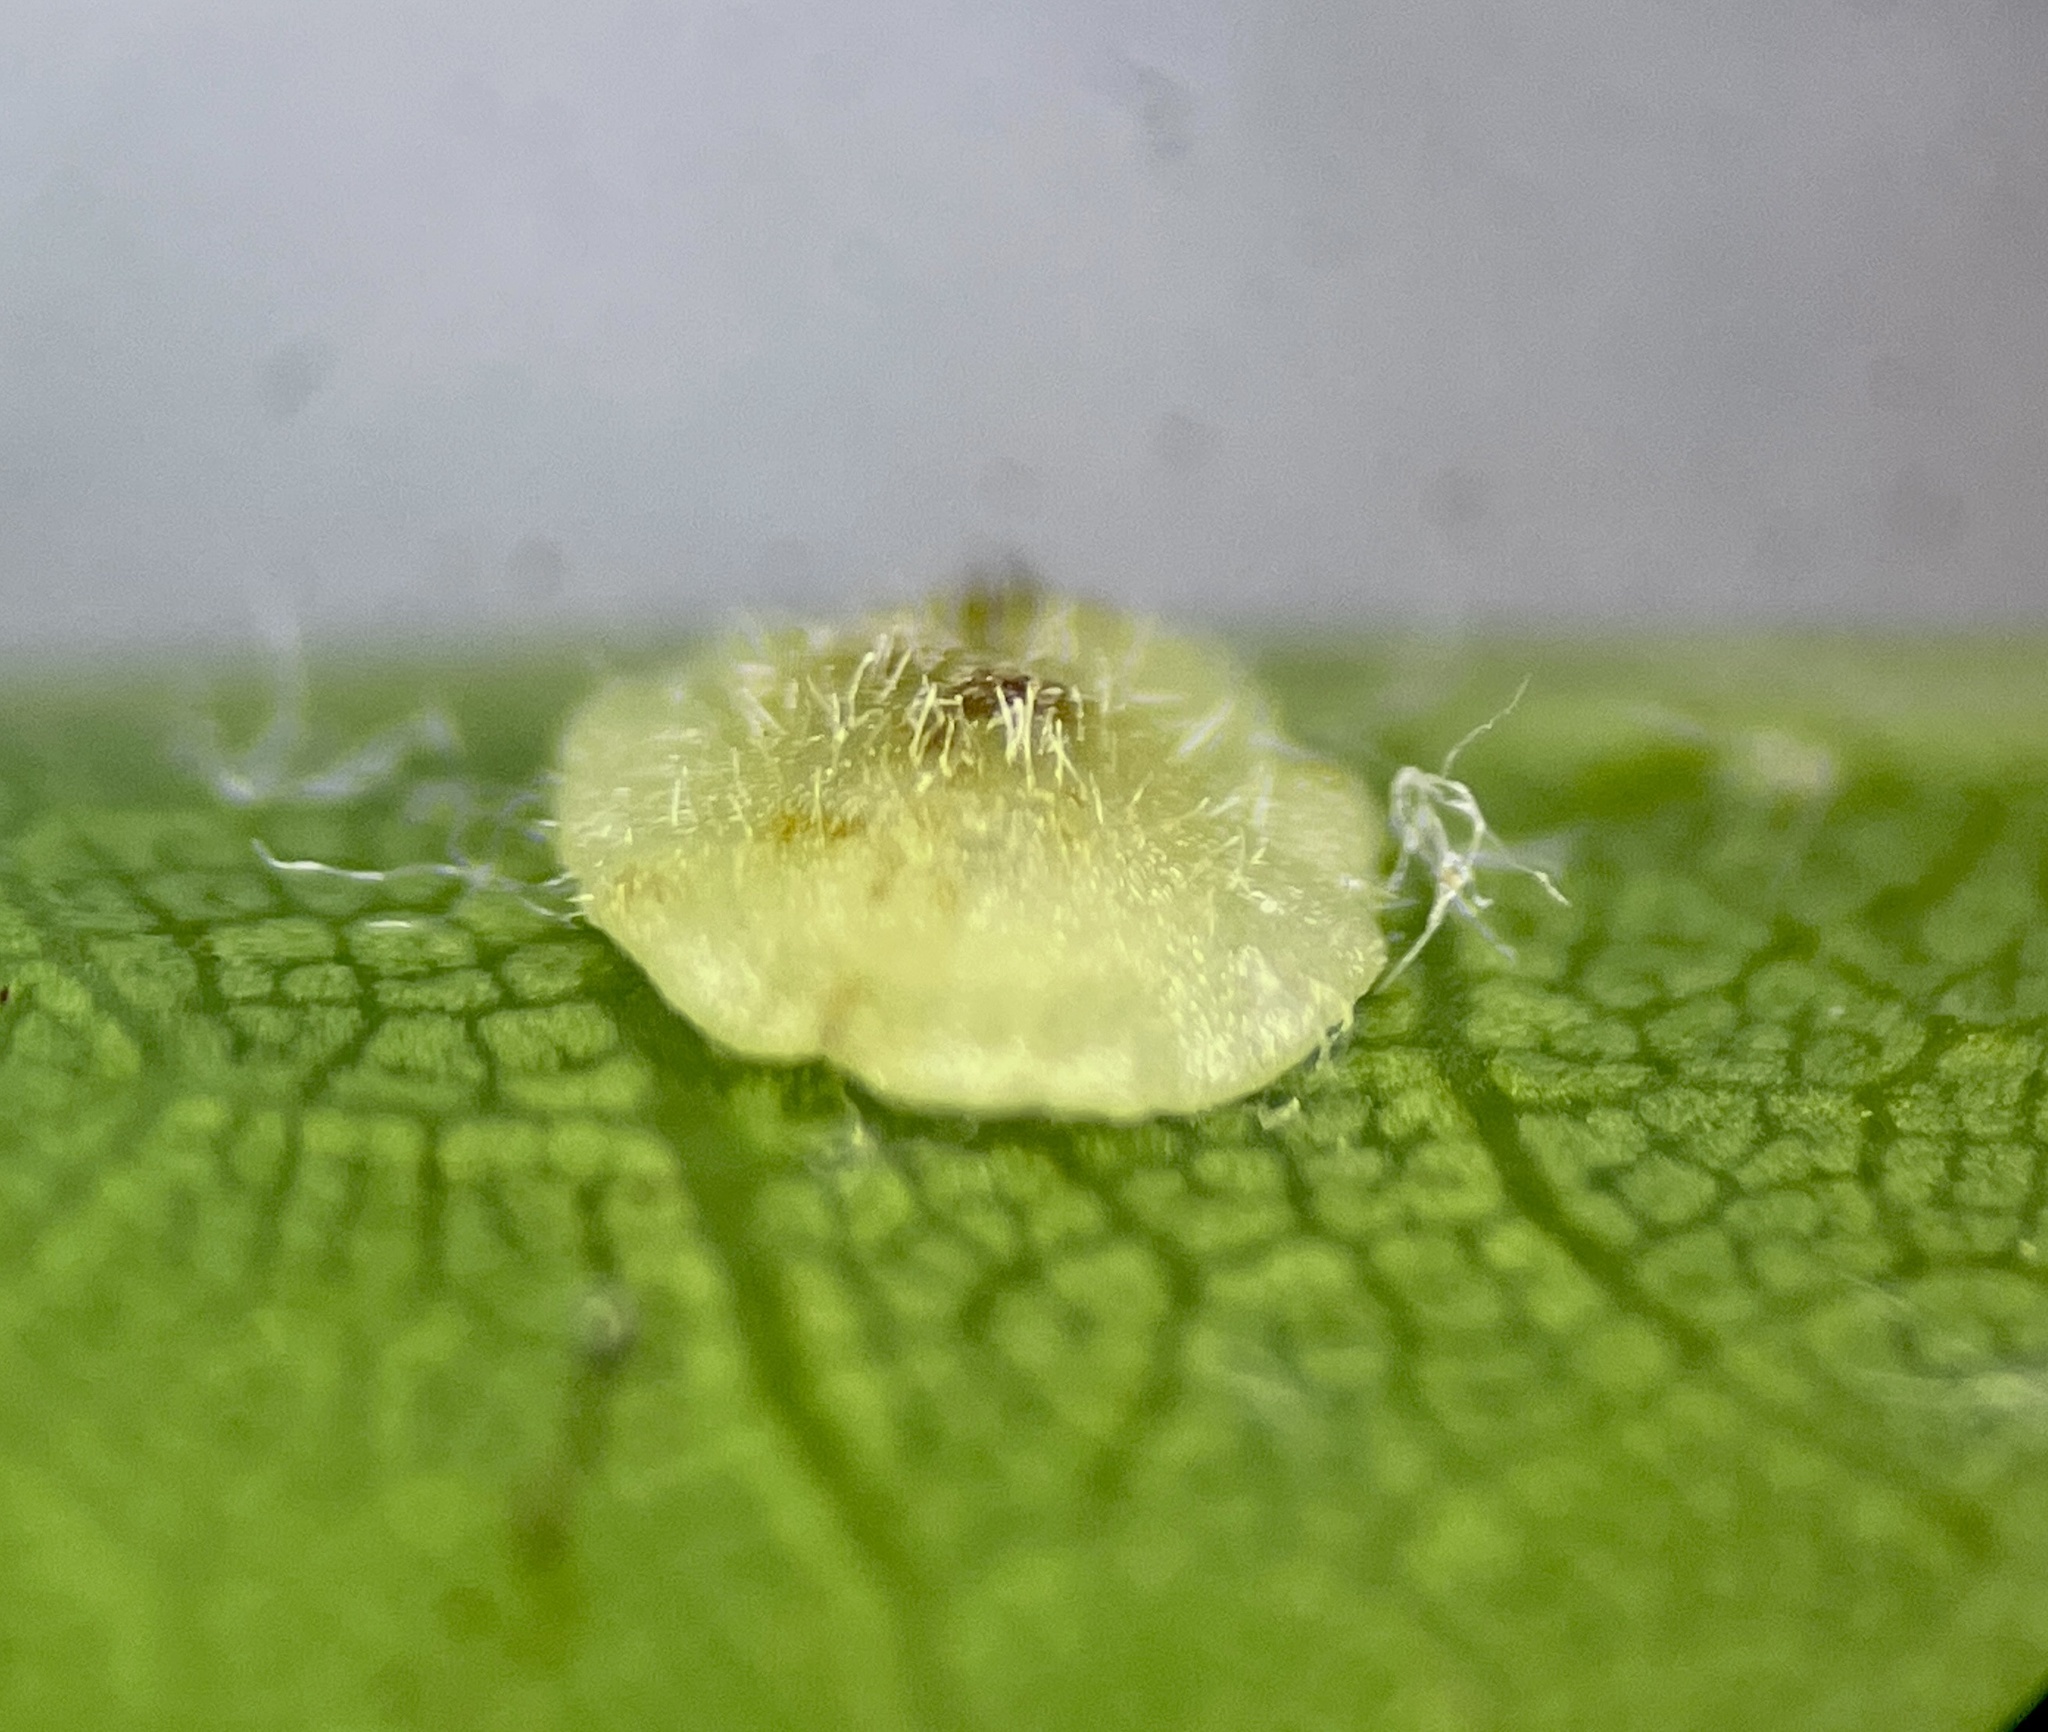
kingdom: Animalia
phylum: Arthropoda
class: Insecta
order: Hymenoptera
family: Cynipidae
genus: Neuroterus
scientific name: Neuroterus
